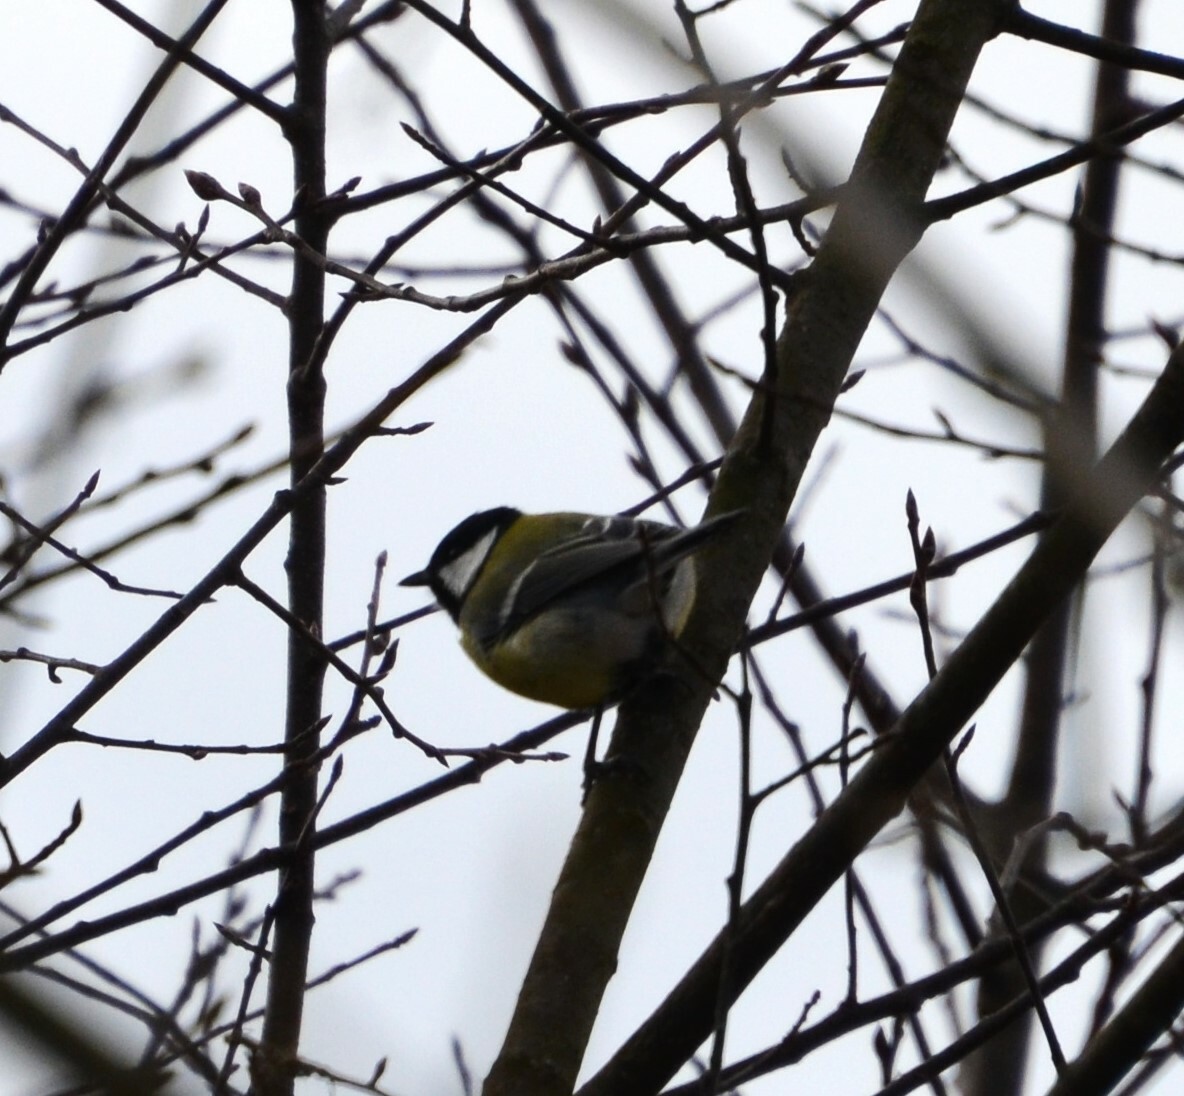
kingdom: Animalia
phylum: Chordata
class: Aves
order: Passeriformes
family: Paridae
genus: Parus
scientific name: Parus major
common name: Great tit
